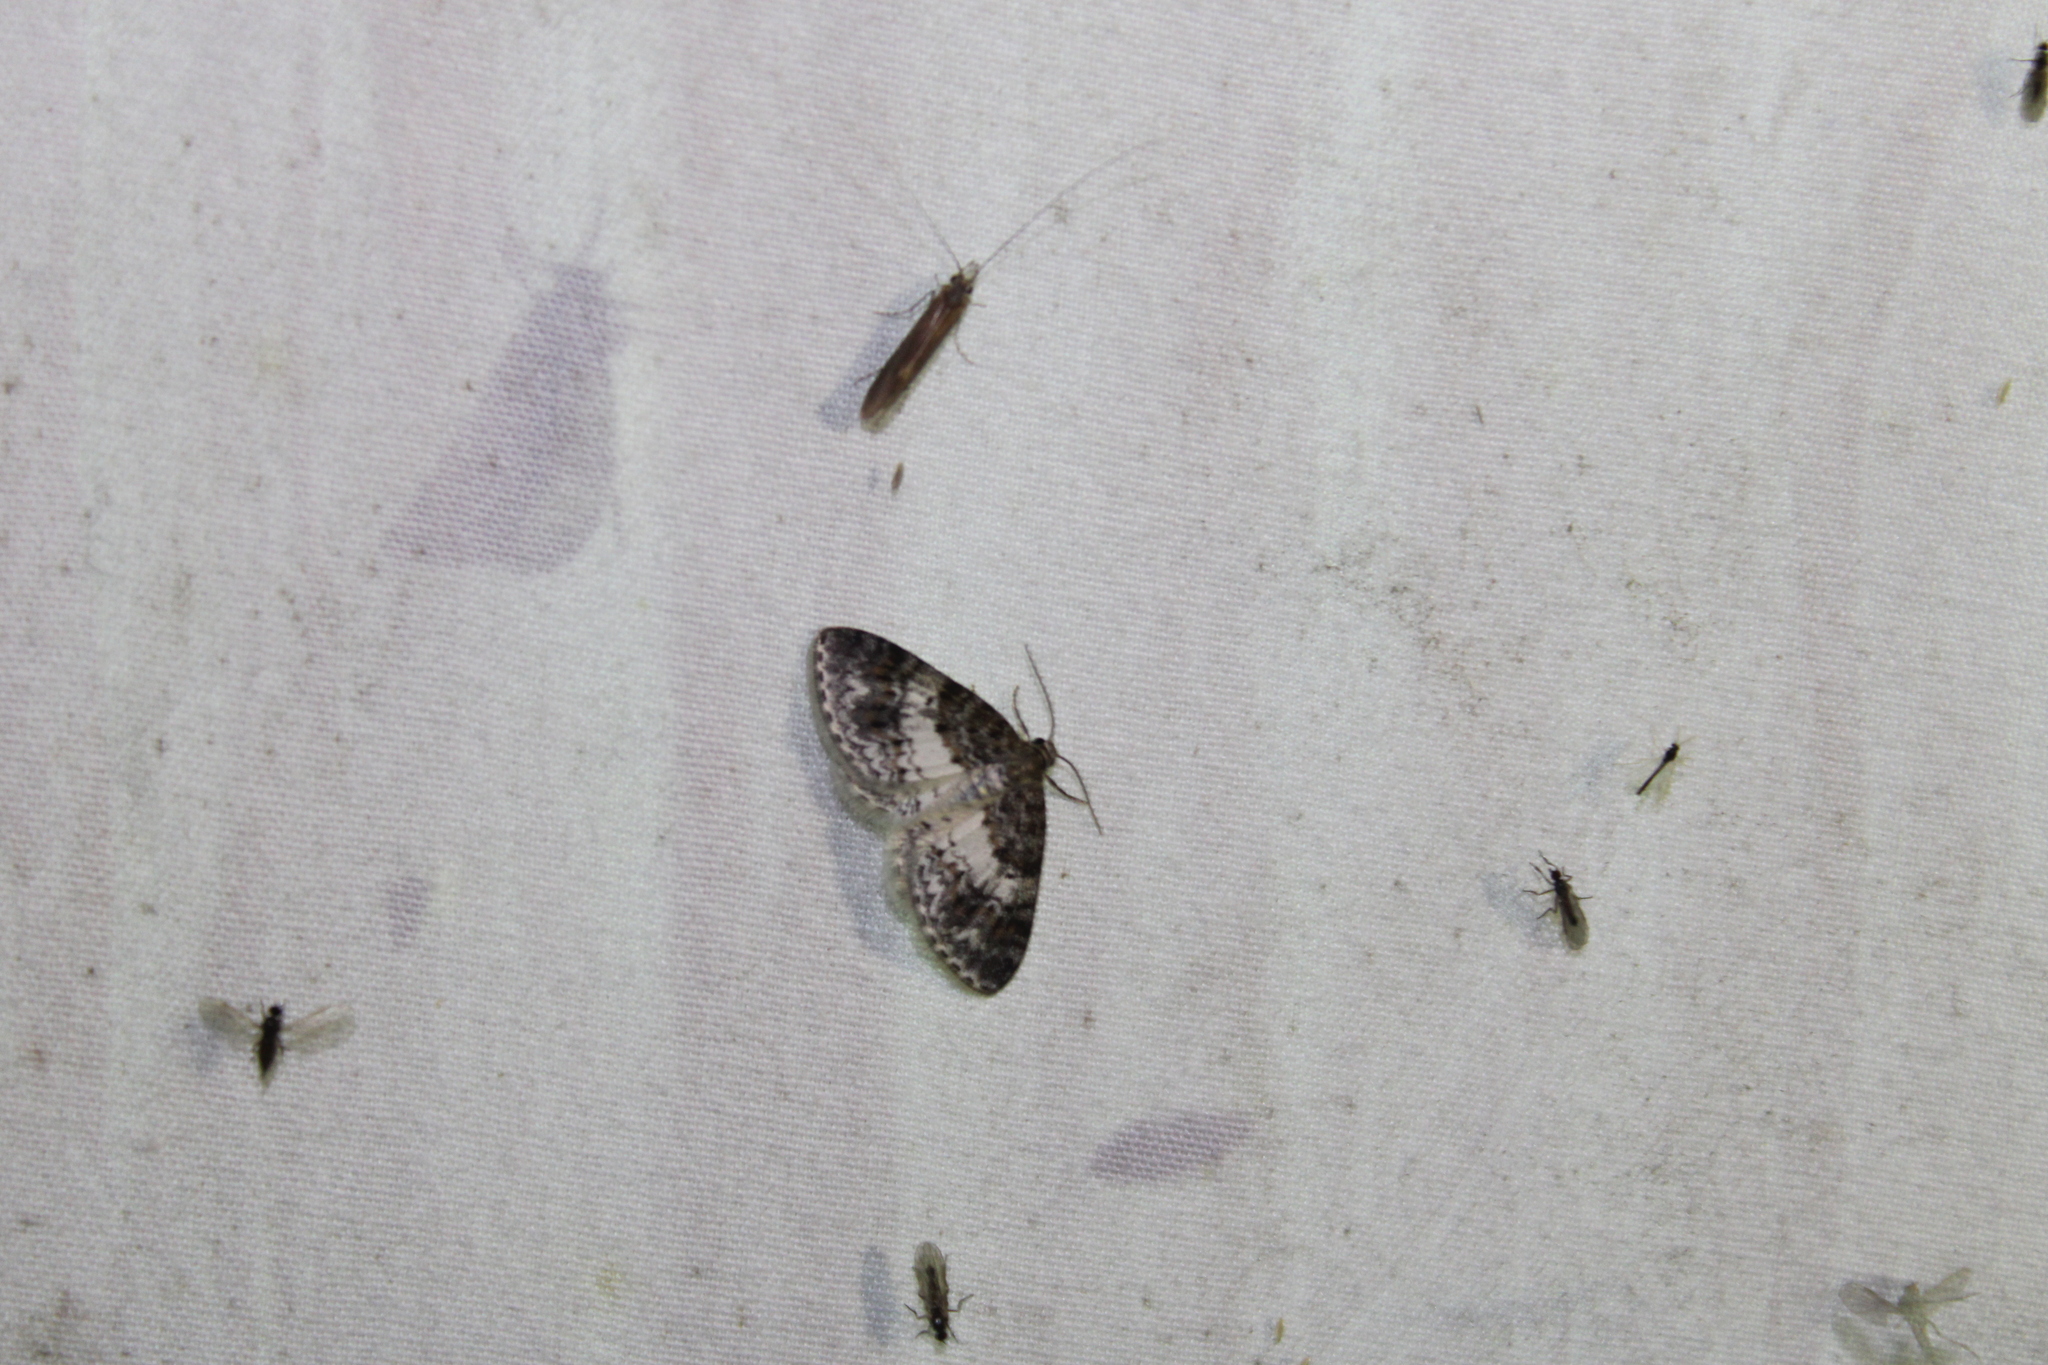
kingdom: Animalia
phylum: Arthropoda
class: Insecta
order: Lepidoptera
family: Geometridae
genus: Hydrelia
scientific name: Hydrelia condensata
